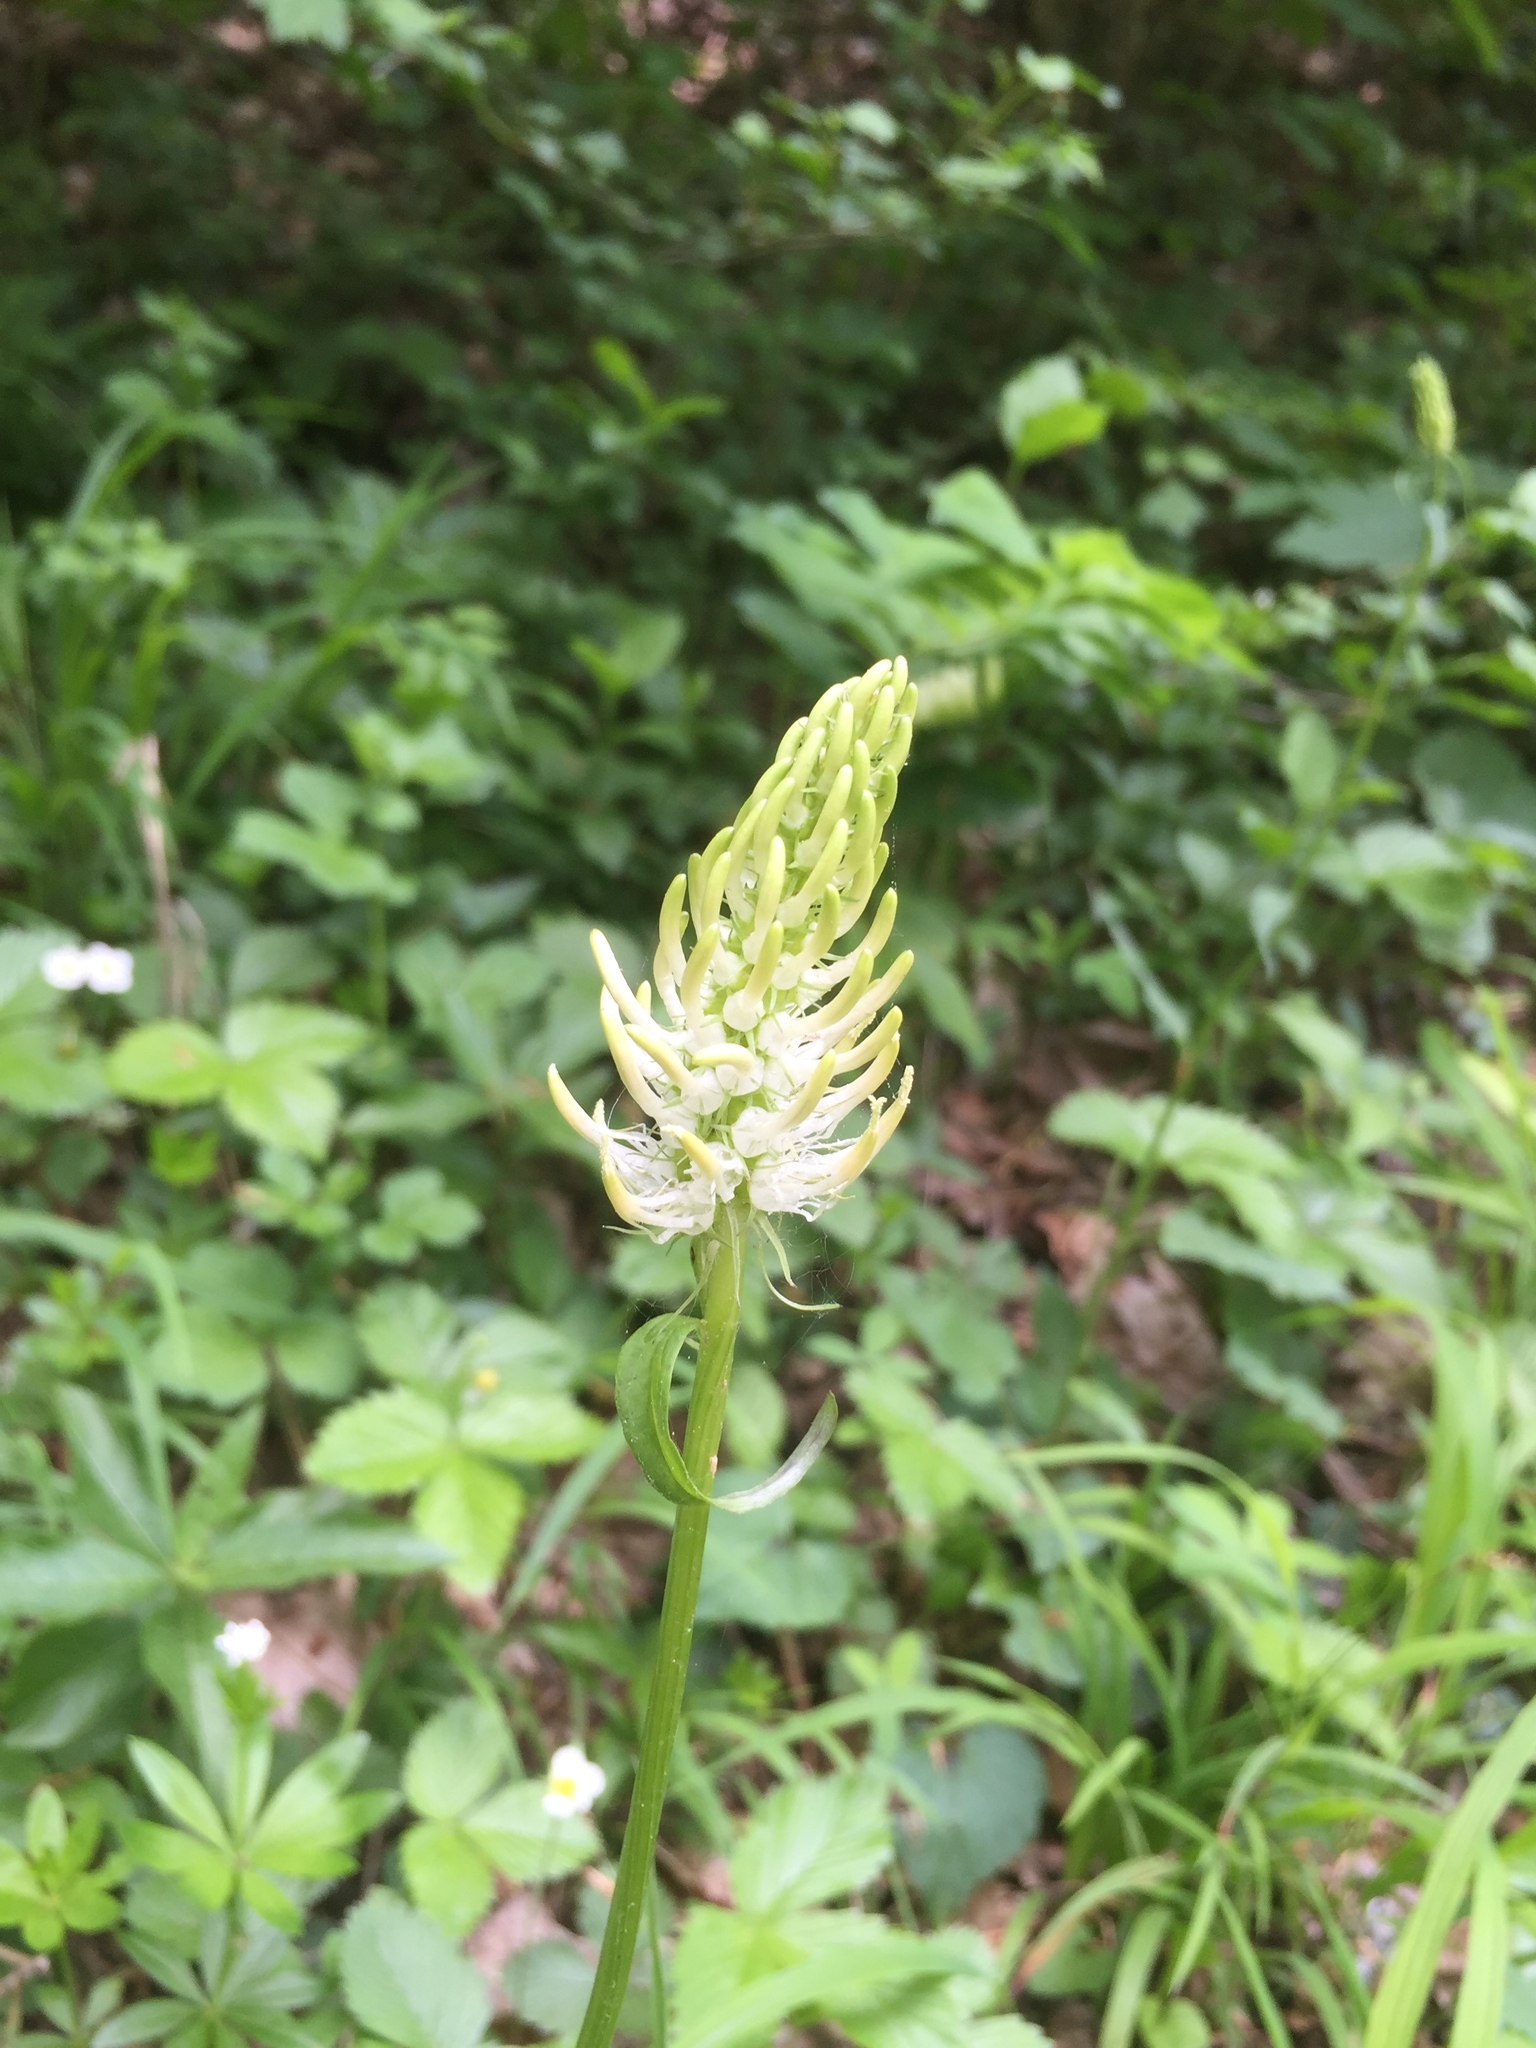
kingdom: Plantae
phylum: Tracheophyta
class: Magnoliopsida
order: Asterales
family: Campanulaceae
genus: Phyteuma
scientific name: Phyteuma spicatum
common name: Spiked rampion
